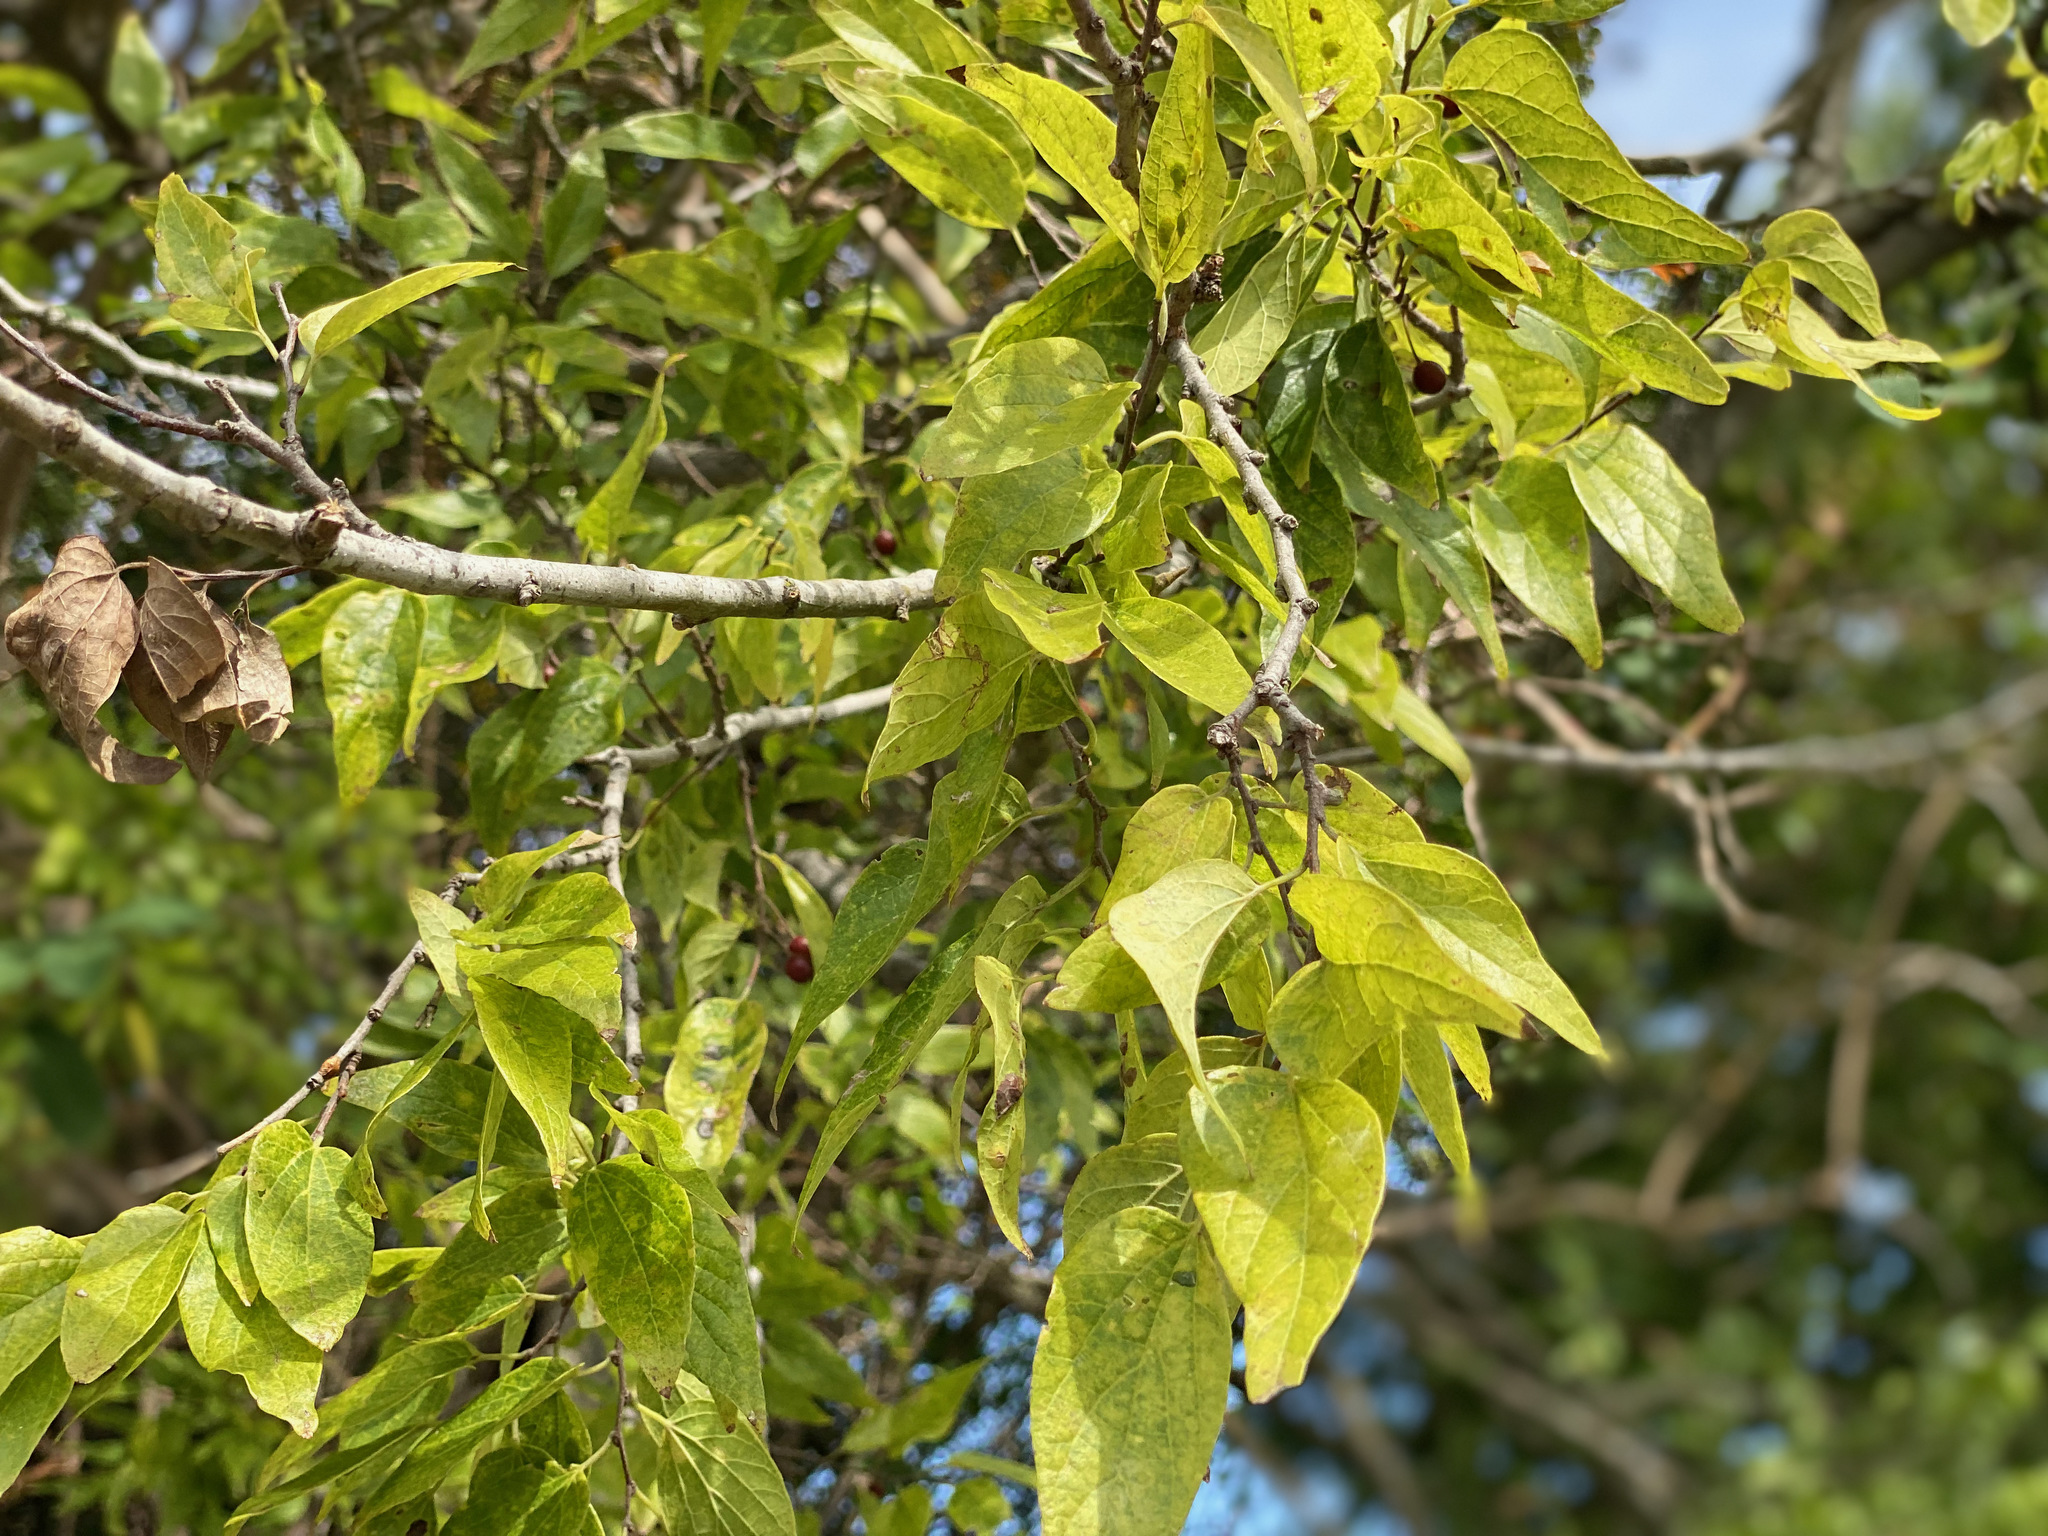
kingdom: Plantae
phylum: Tracheophyta
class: Magnoliopsida
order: Rosales
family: Cannabaceae
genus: Celtis
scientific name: Celtis laevigata
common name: Sugarberry
